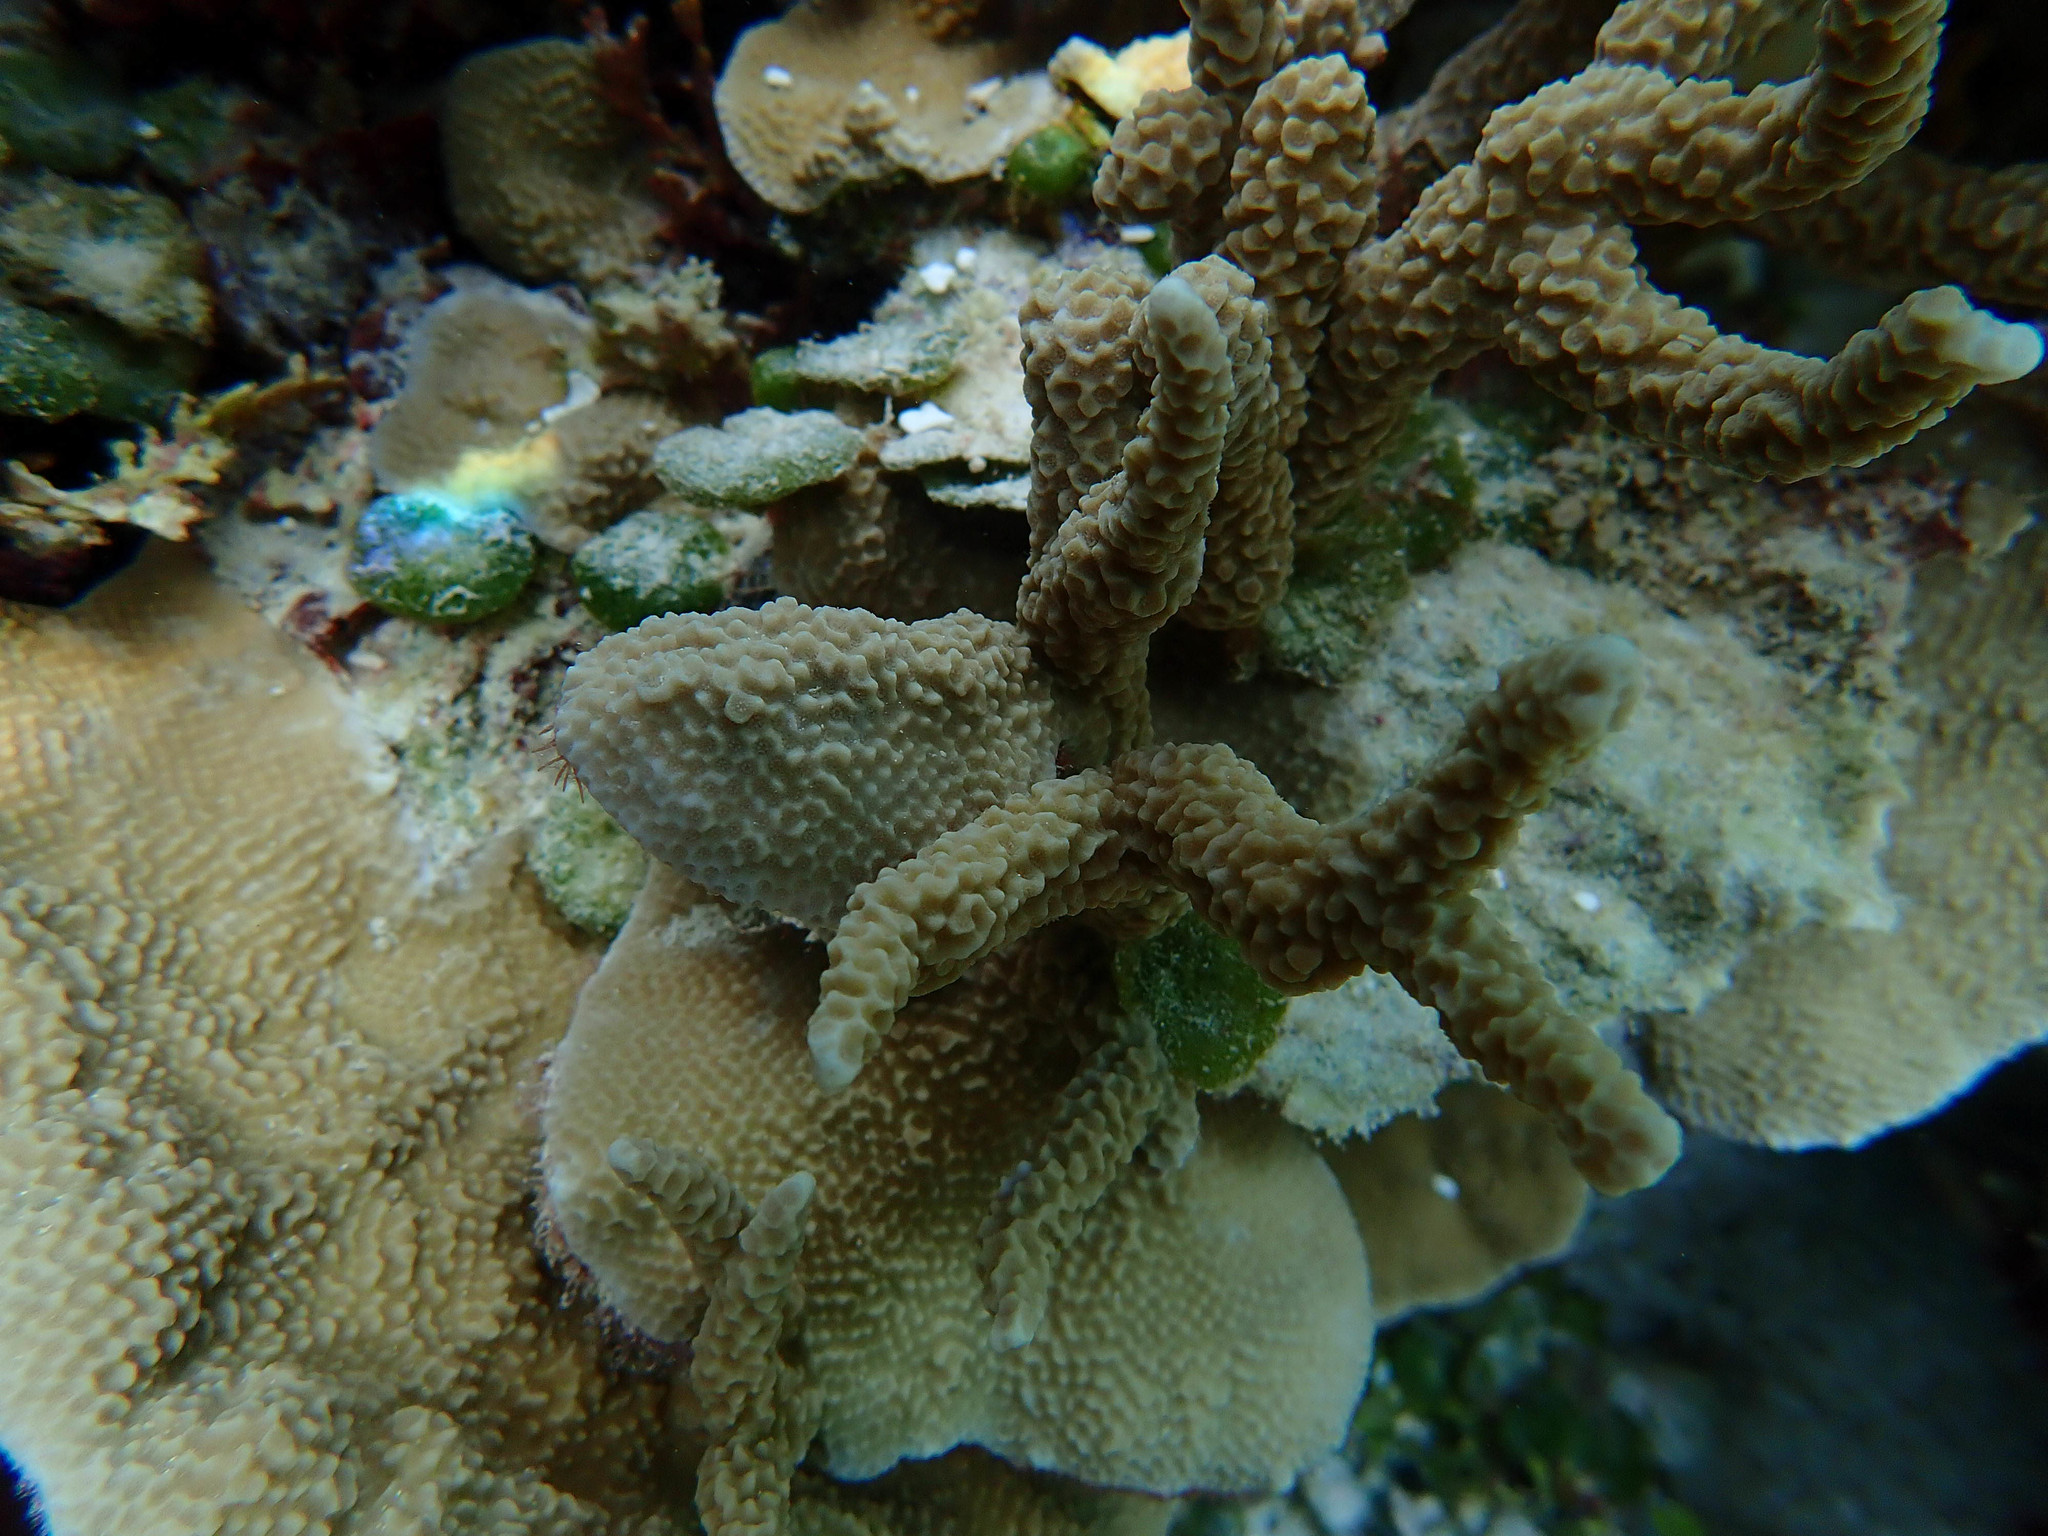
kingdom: Animalia
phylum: Cnidaria
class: Anthozoa
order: Scleractinia
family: Poritidae
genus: Porites
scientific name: Porites nigrescens
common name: Hump coral
